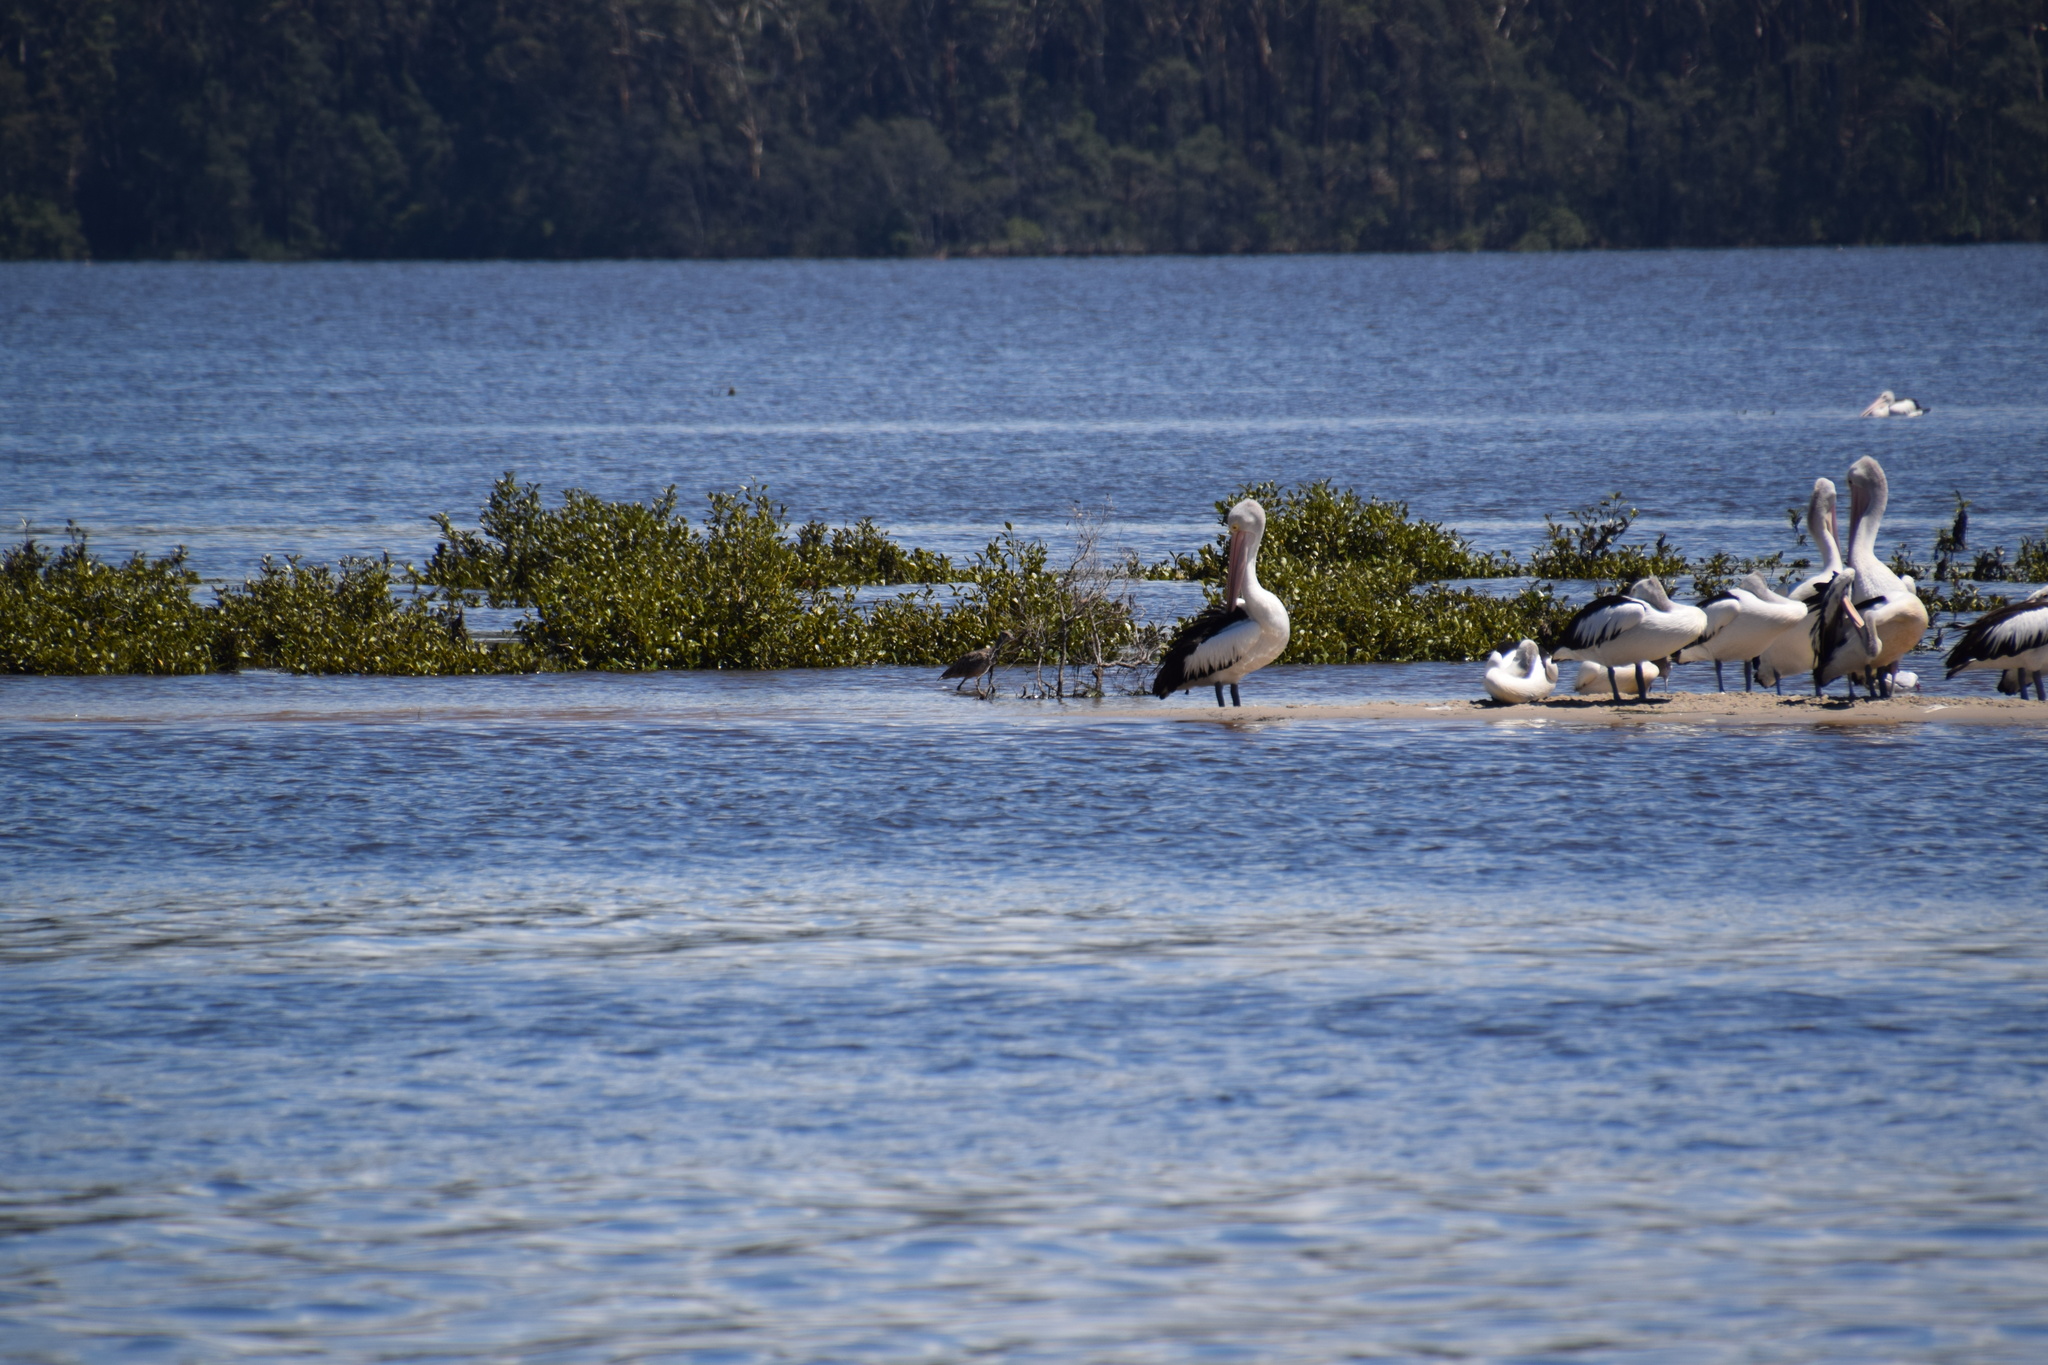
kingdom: Animalia
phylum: Chordata
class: Aves
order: Charadriiformes
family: Scolopacidae
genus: Numenius
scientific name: Numenius madagascariensis
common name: Far eastern curlew
